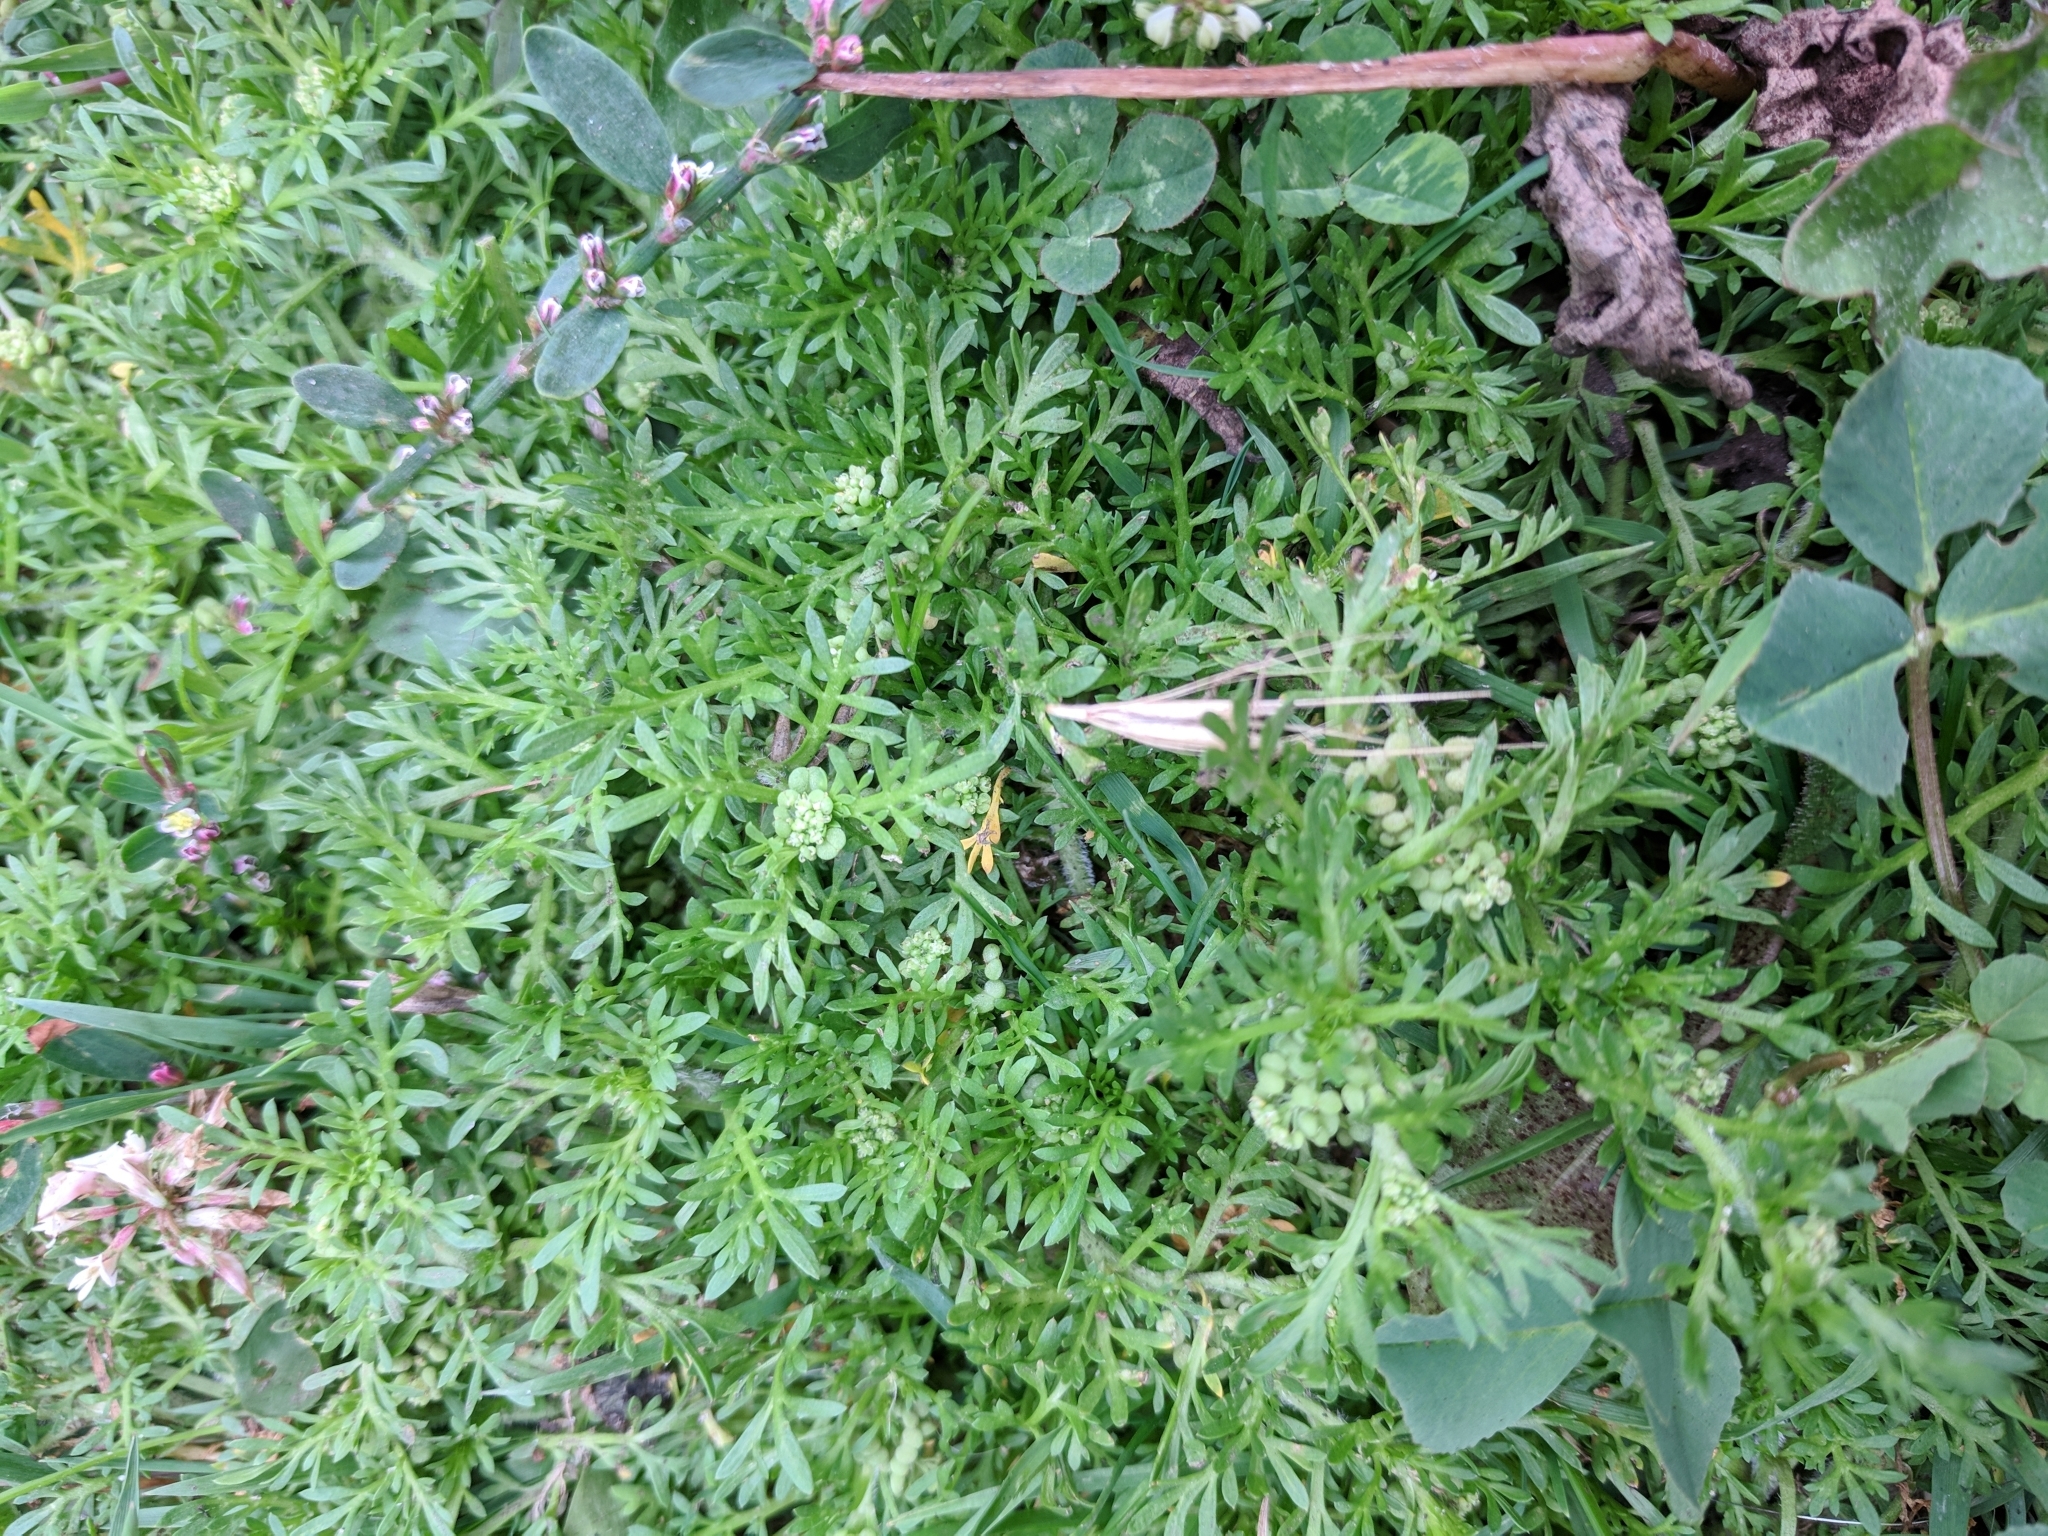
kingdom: Plantae
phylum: Tracheophyta
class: Magnoliopsida
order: Brassicales
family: Brassicaceae
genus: Lepidium
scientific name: Lepidium didymum
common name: Lesser swinecress
